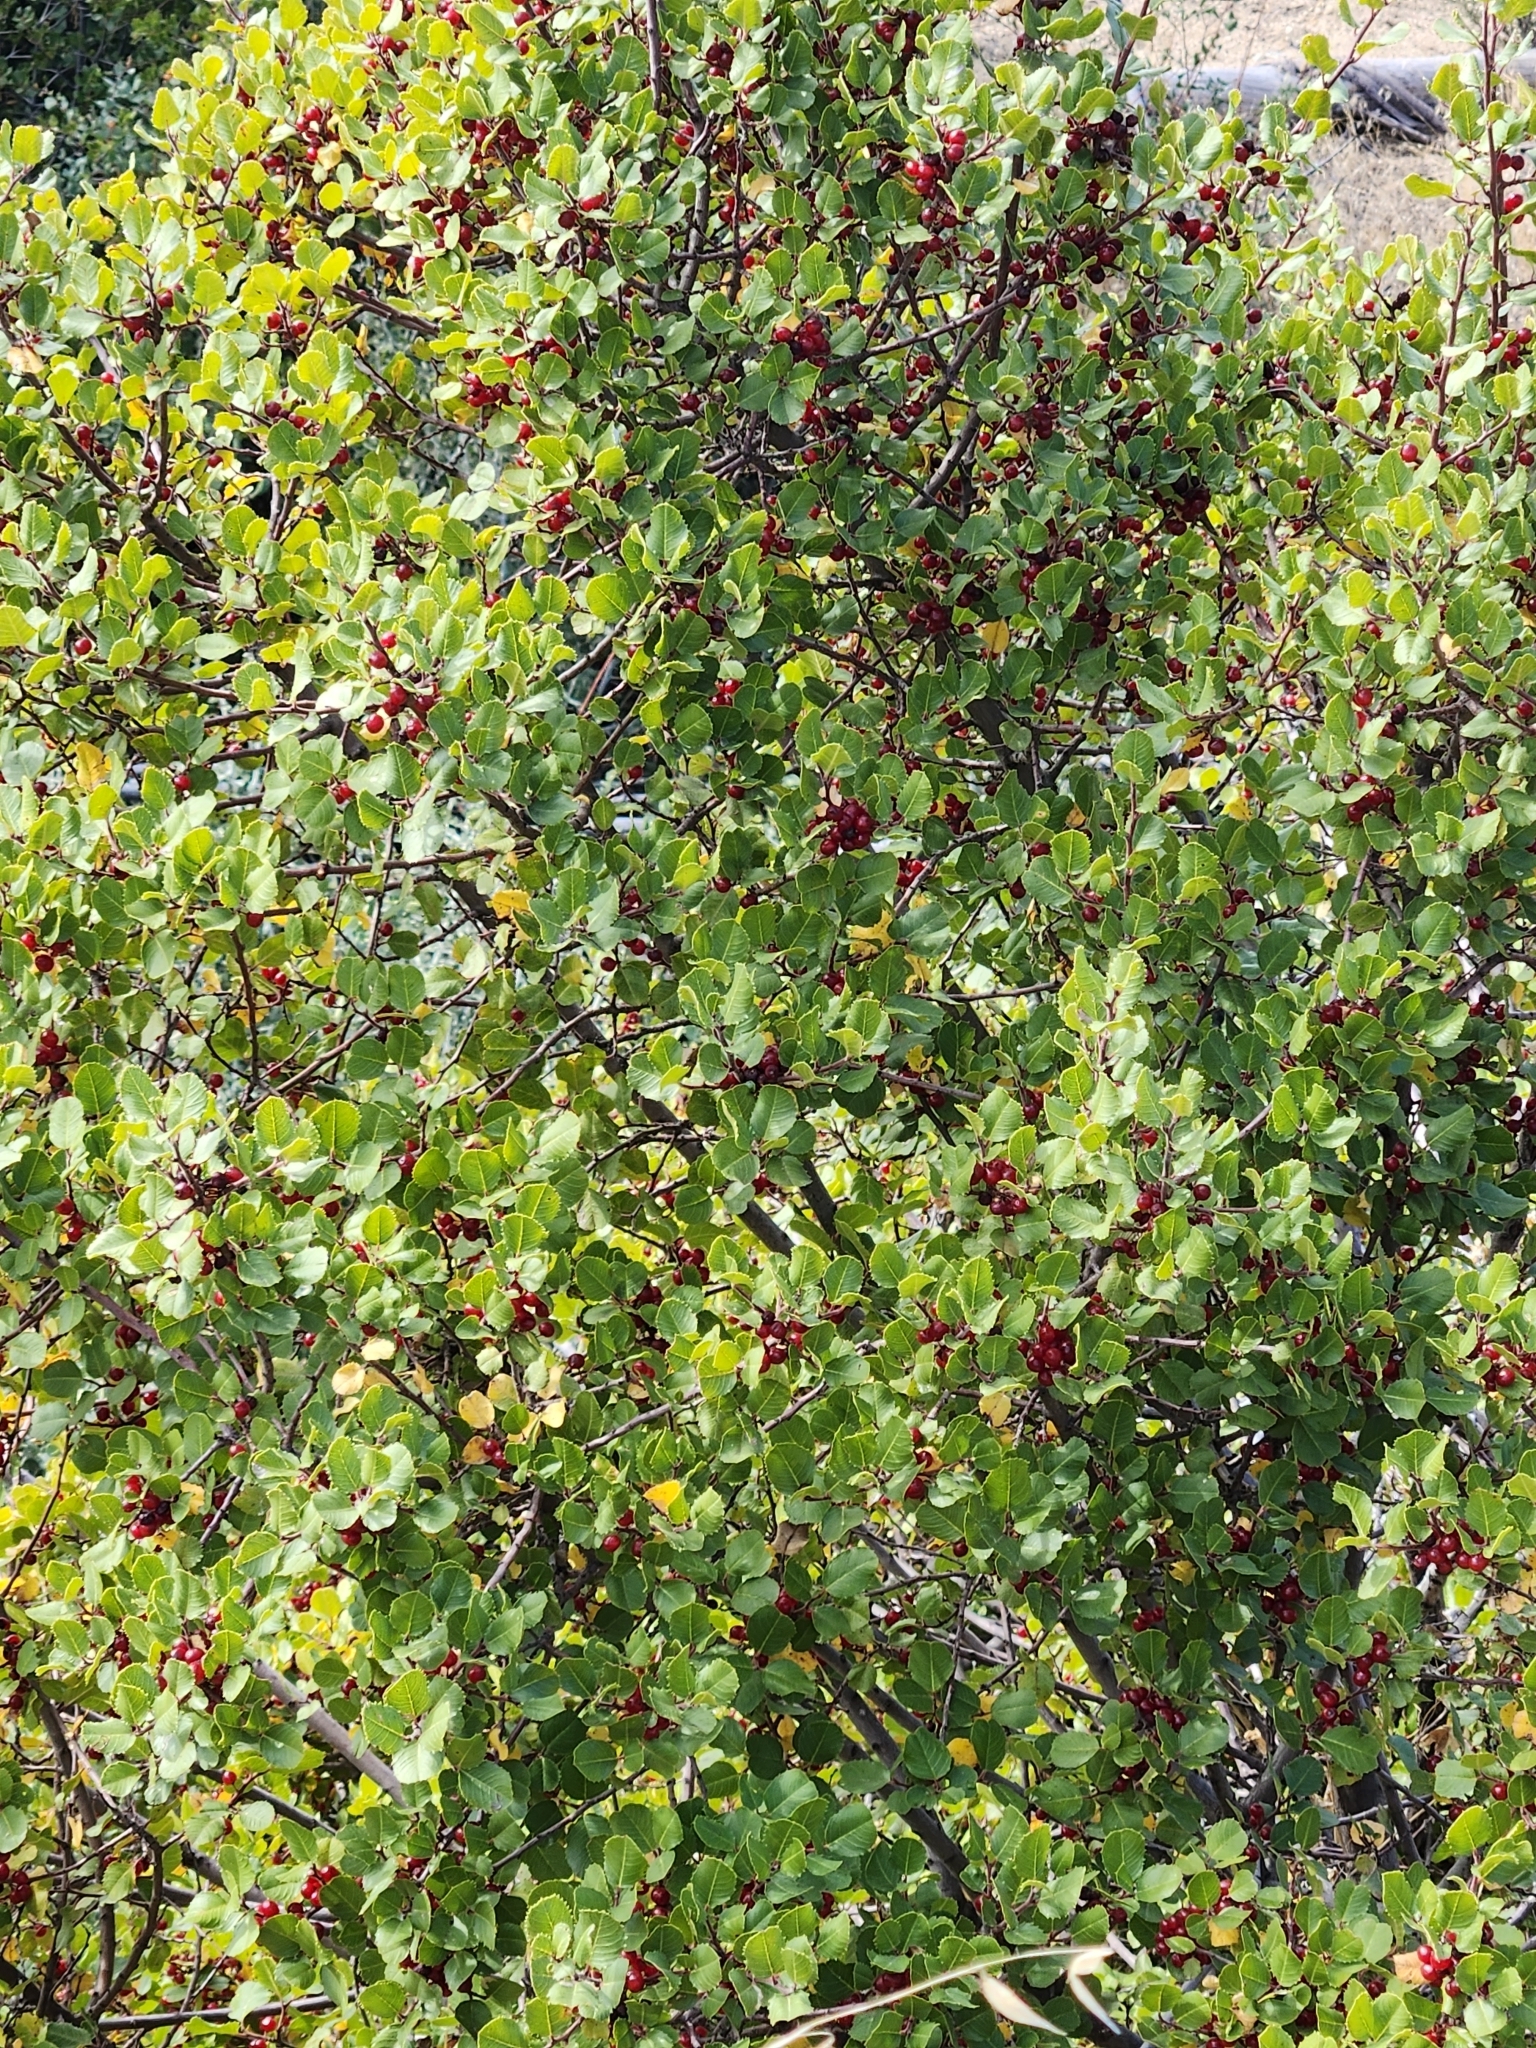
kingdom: Plantae
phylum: Tracheophyta
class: Magnoliopsida
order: Rosales
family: Rhamnaceae
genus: Endotropis
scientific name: Endotropis crocea
